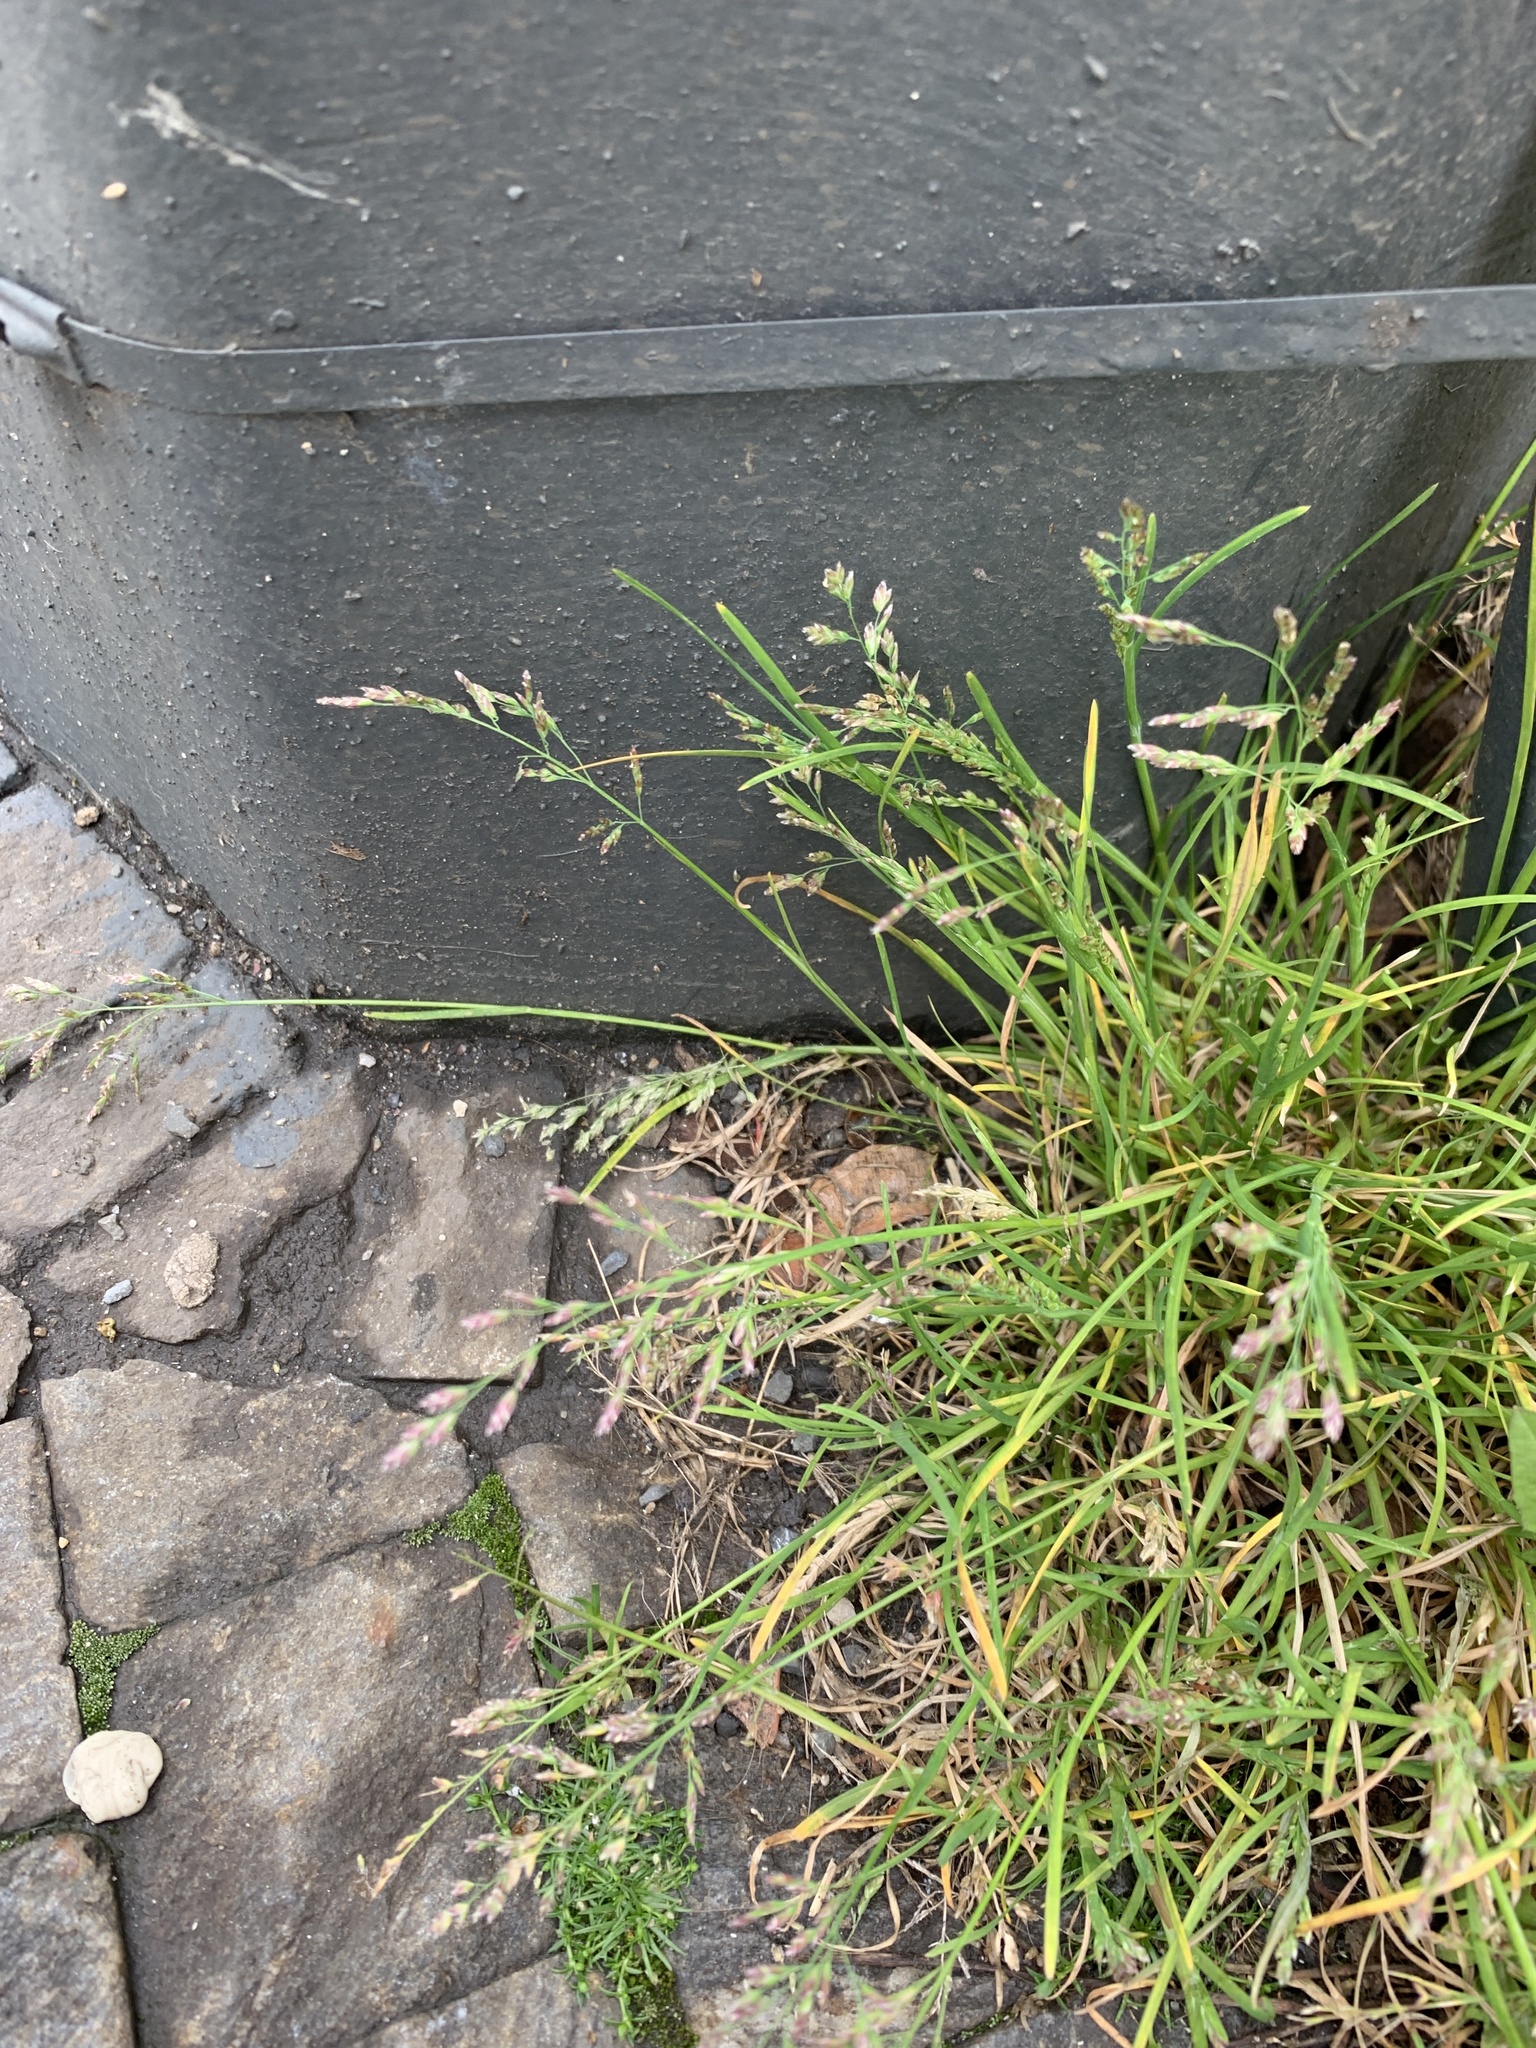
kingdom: Plantae
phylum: Tracheophyta
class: Liliopsida
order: Poales
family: Poaceae
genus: Poa
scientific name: Poa annua
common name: Annual bluegrass
